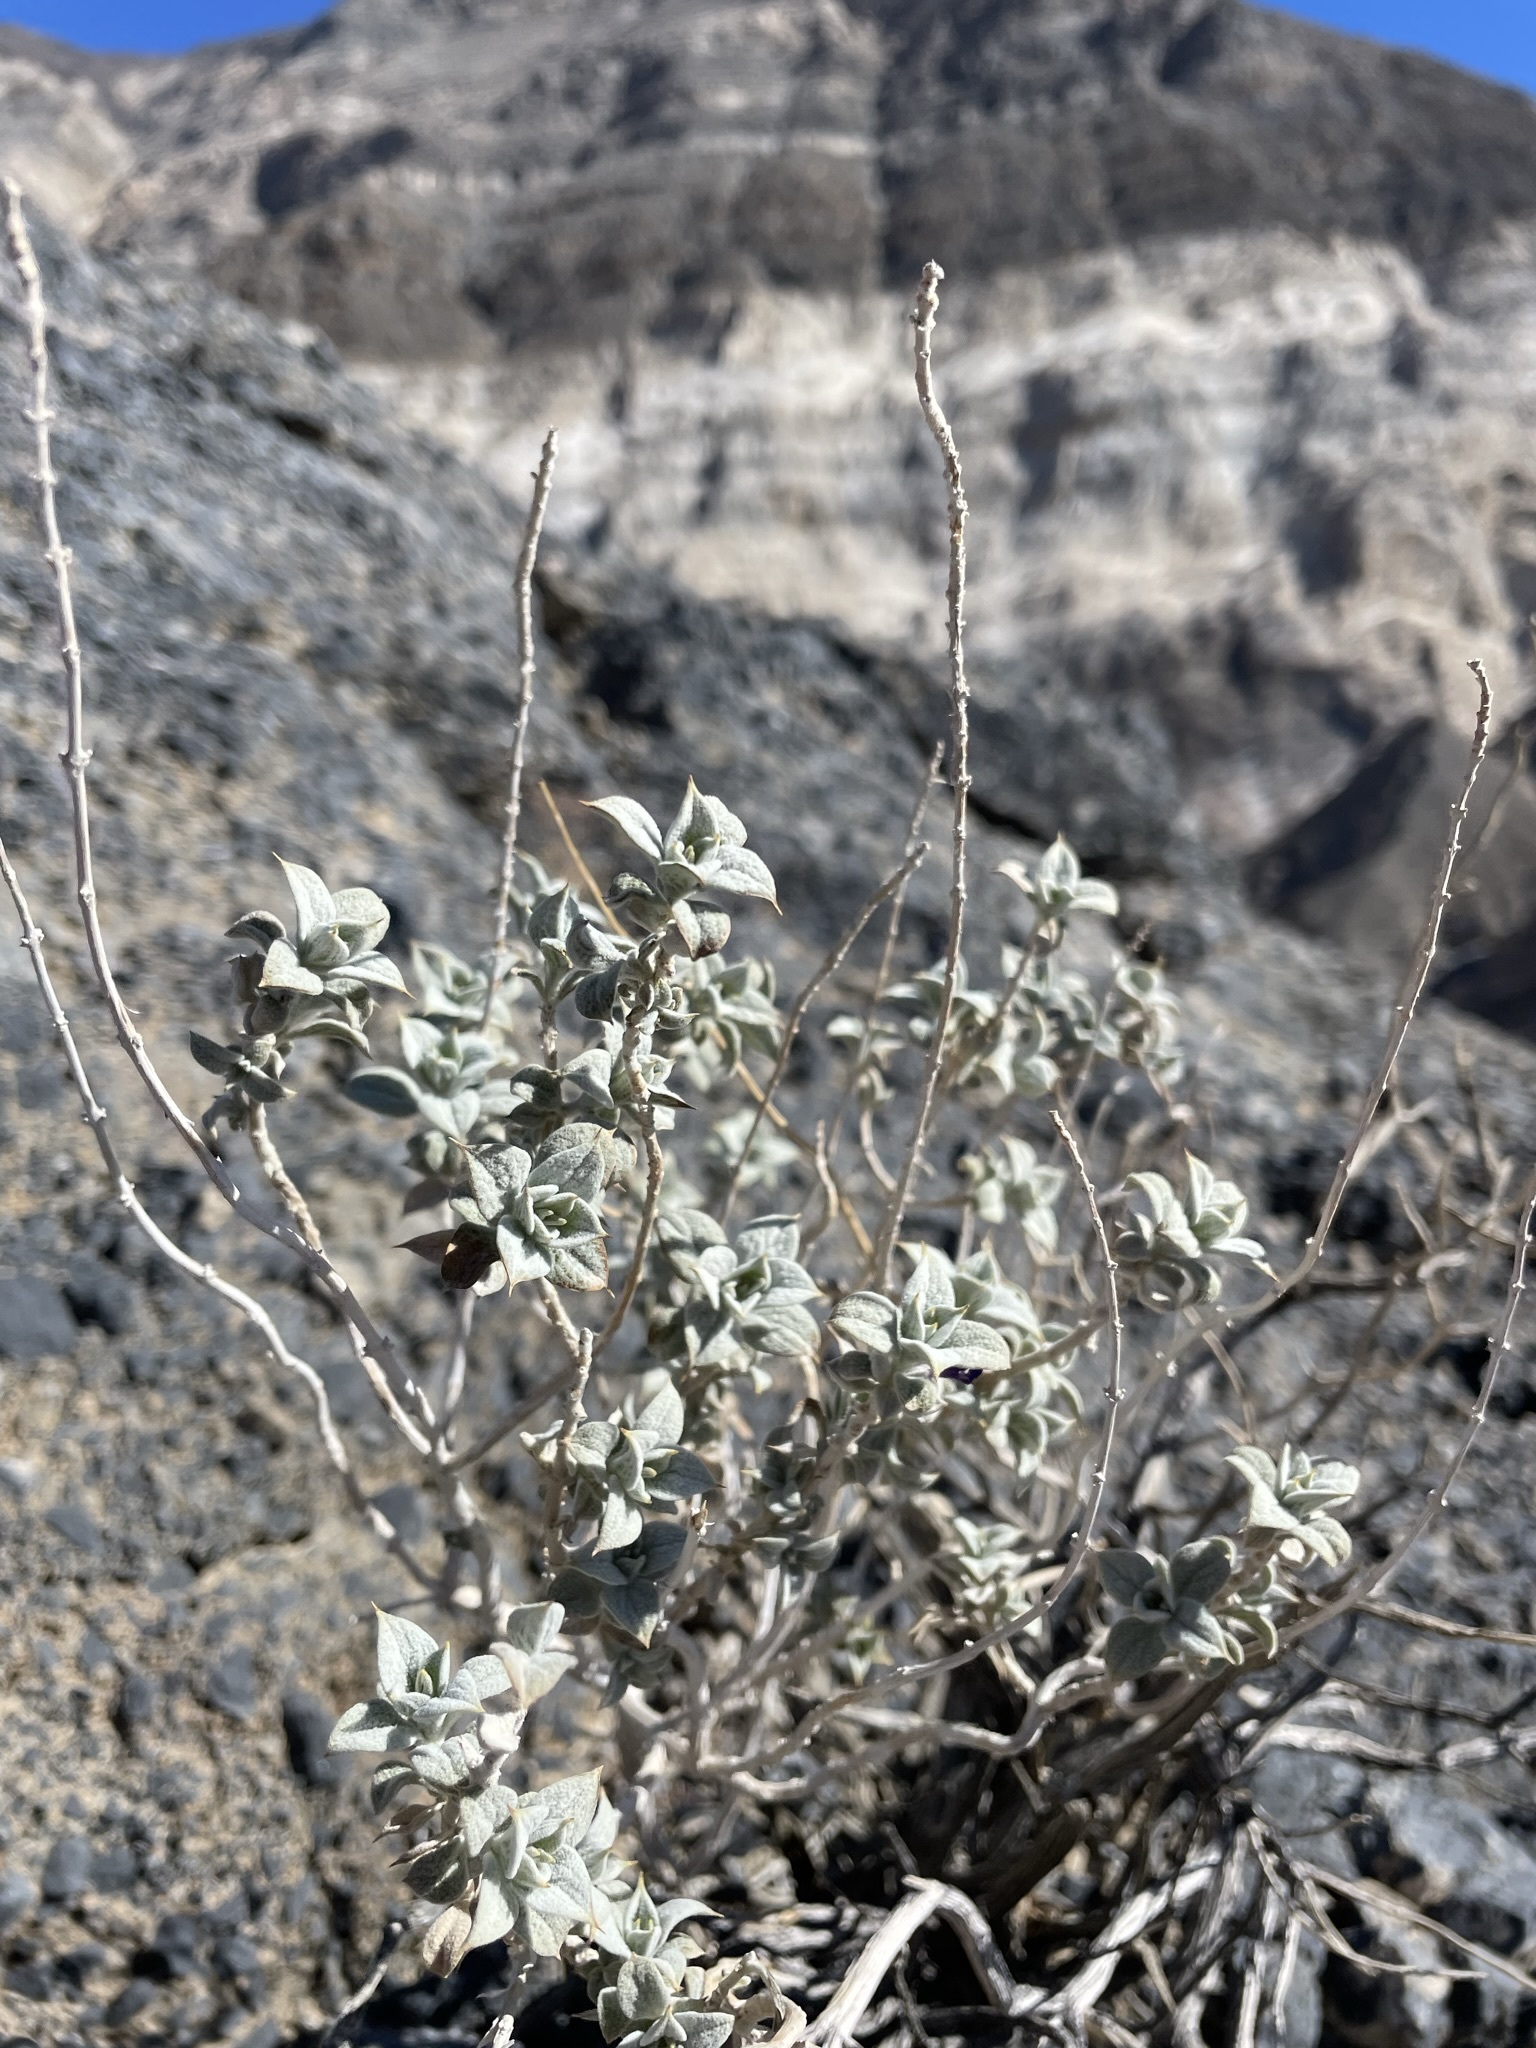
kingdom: Plantae
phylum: Tracheophyta
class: Magnoliopsida
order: Lamiales
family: Lamiaceae
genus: Salvia
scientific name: Salvia funerea
